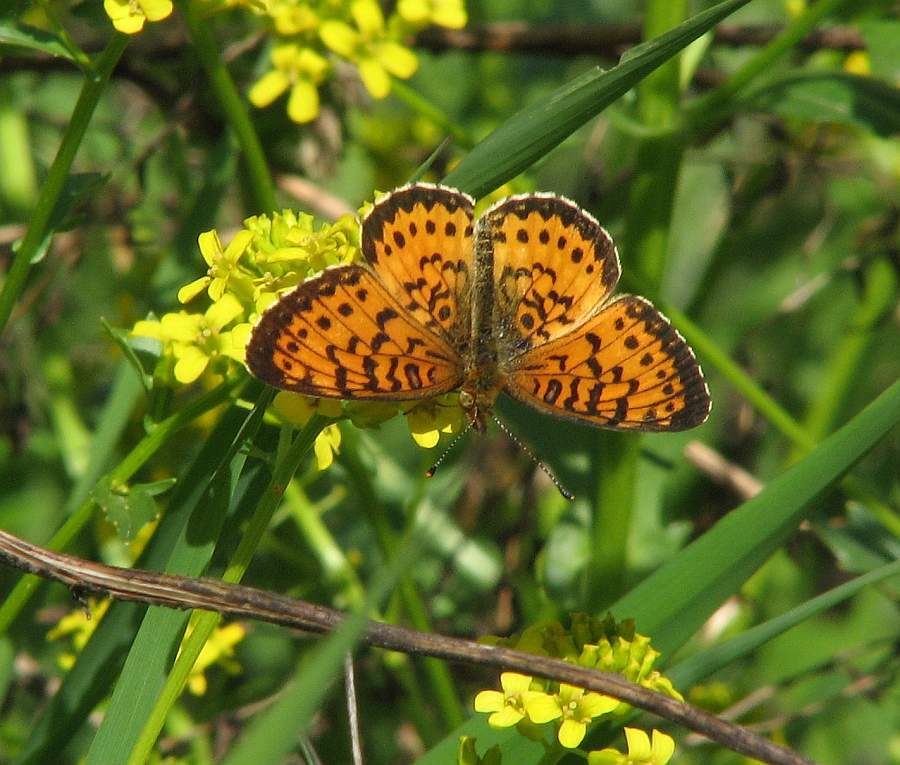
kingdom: Animalia
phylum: Arthropoda
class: Insecta
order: Lepidoptera
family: Nymphalidae
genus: Boloria
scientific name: Boloria
